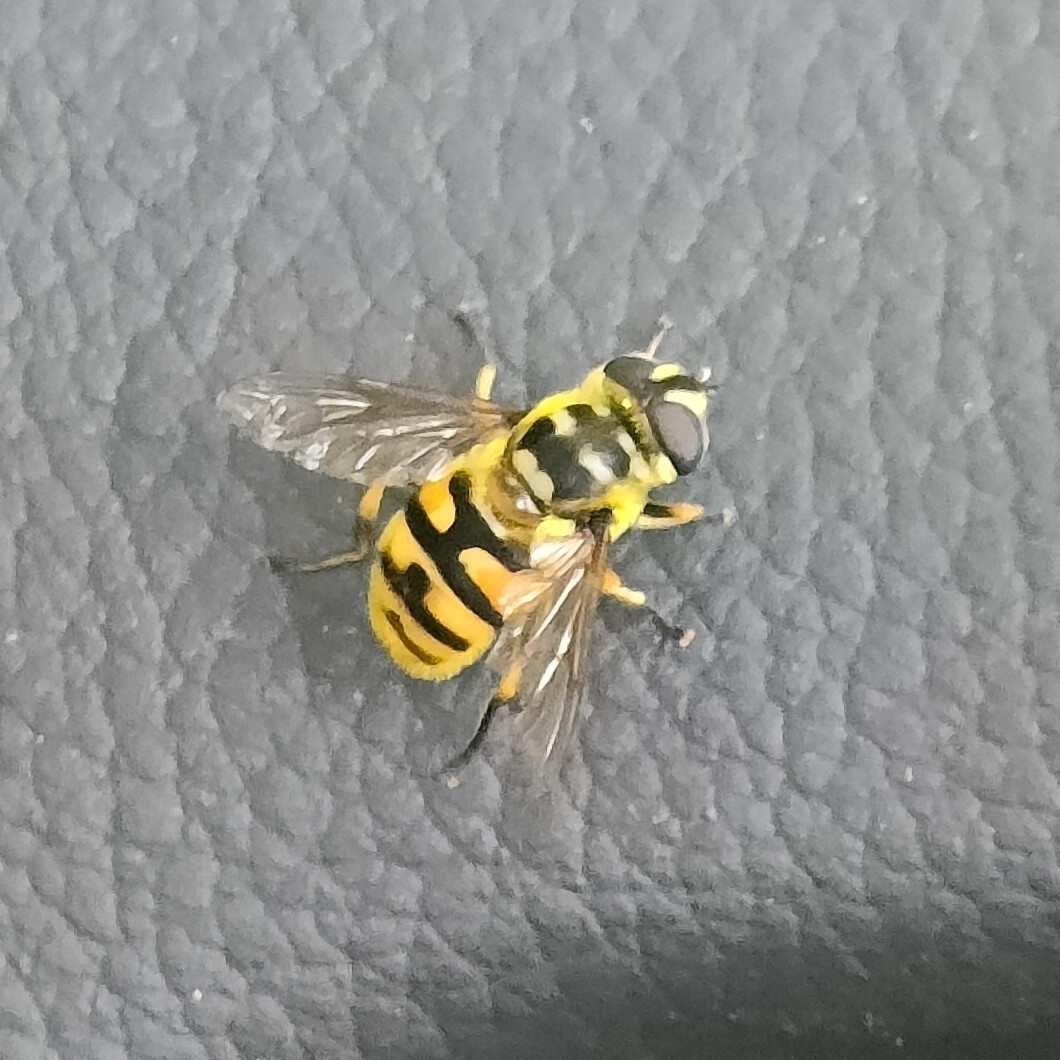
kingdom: Animalia
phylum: Arthropoda
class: Insecta
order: Diptera
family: Syrphidae
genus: Myathropa
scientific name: Myathropa florea
